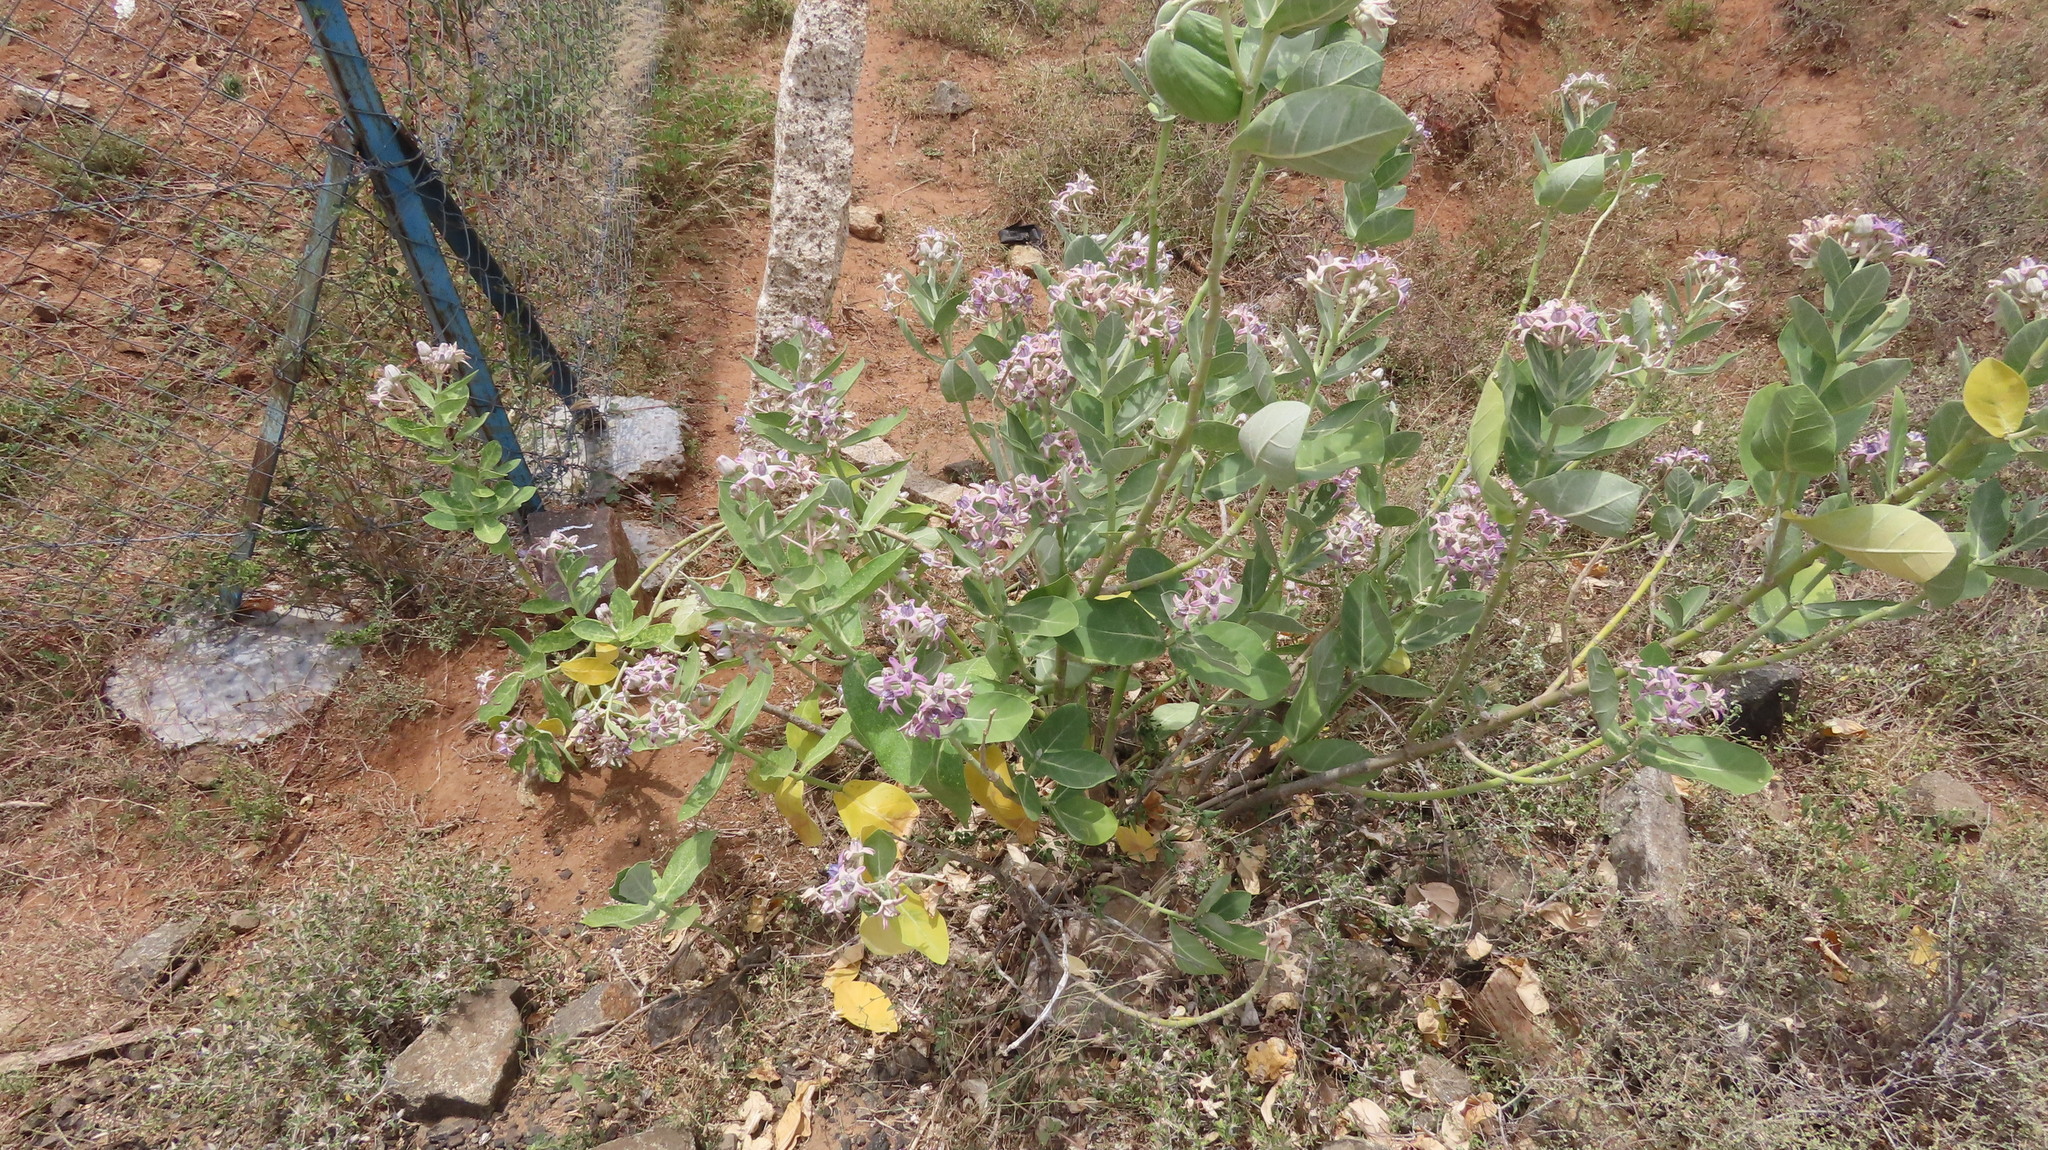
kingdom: Plantae
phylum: Tracheophyta
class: Magnoliopsida
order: Gentianales
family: Apocynaceae
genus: Calotropis
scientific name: Calotropis gigantea
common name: Crown flower
